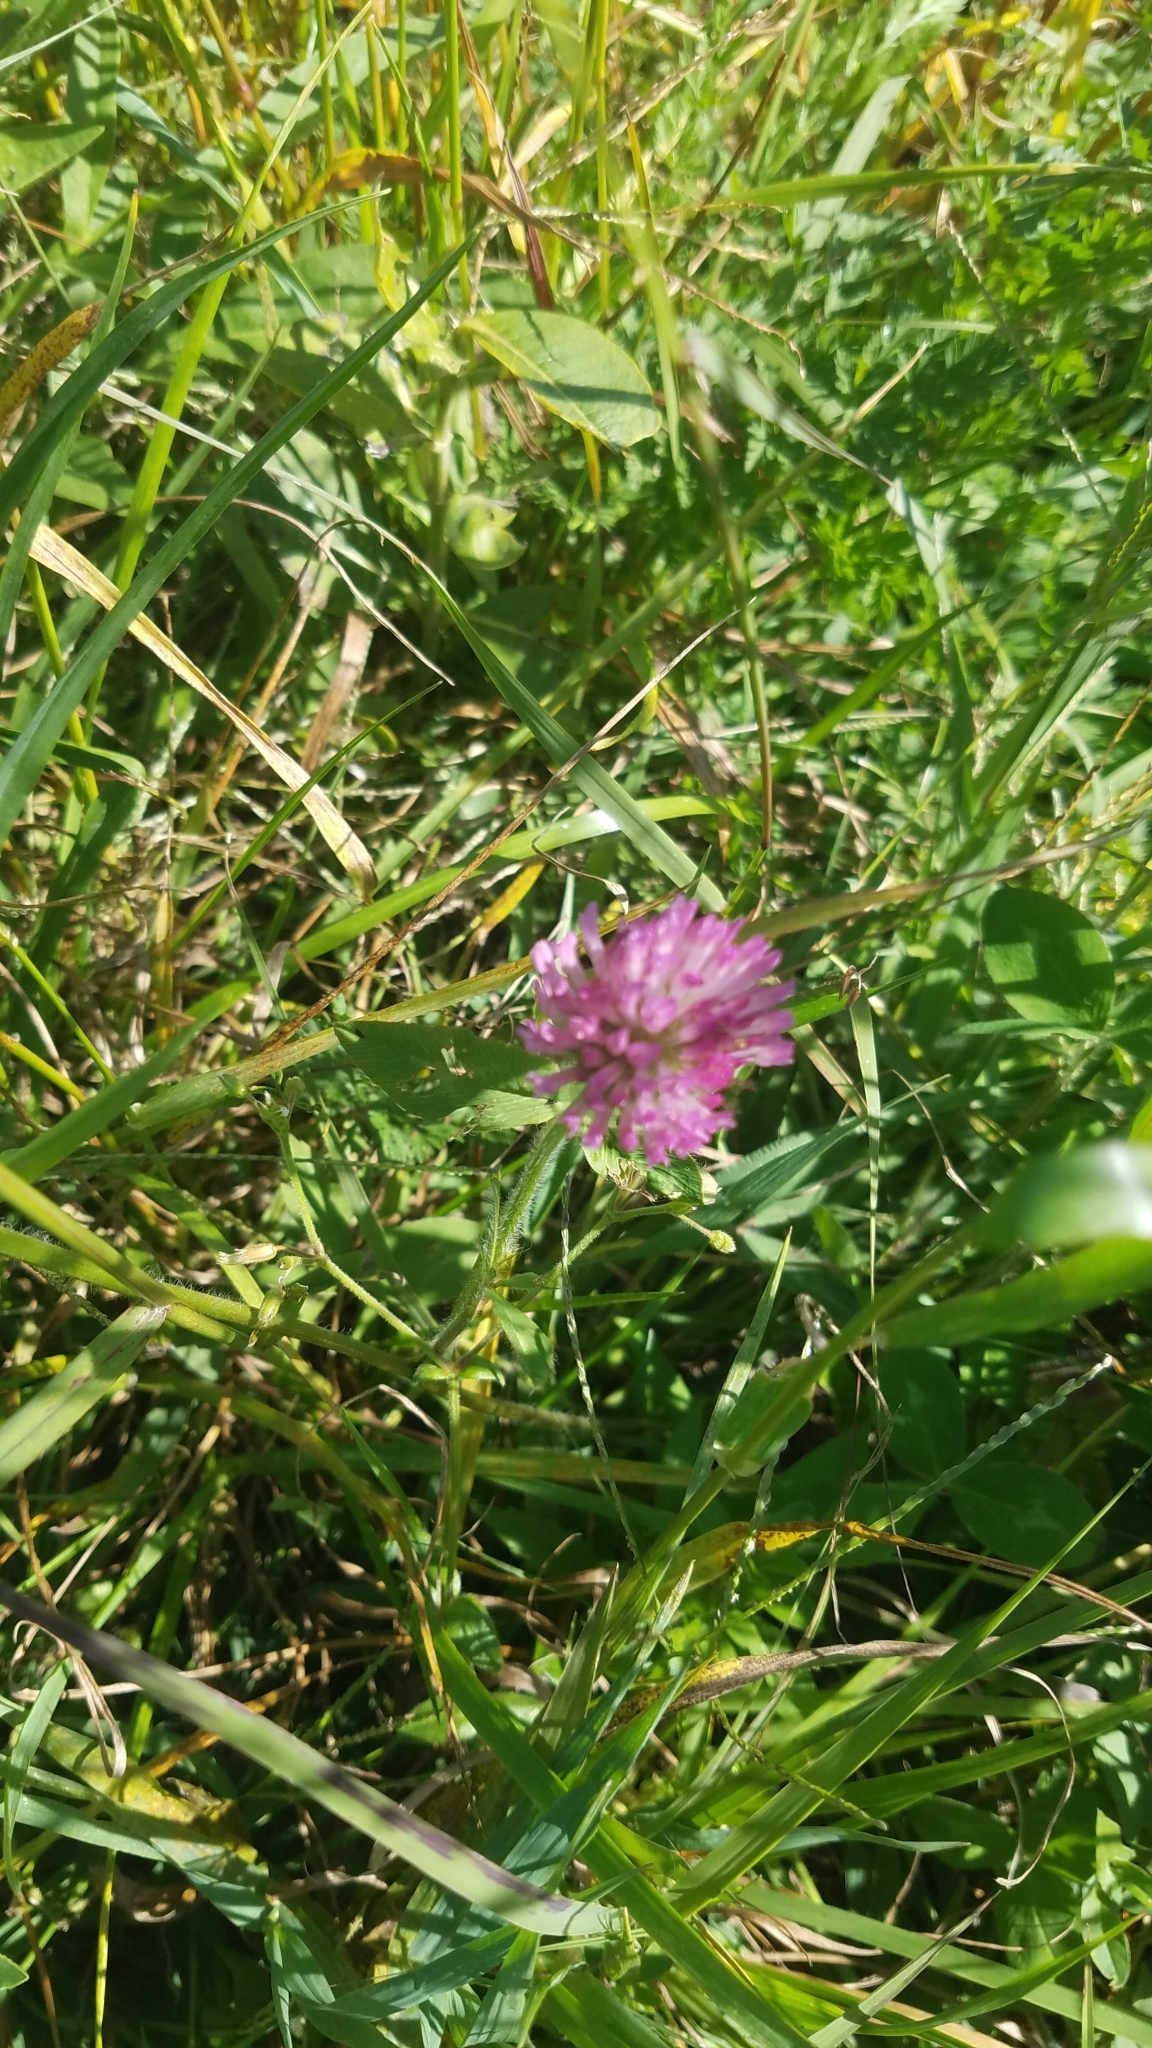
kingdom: Plantae
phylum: Tracheophyta
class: Magnoliopsida
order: Fabales
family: Fabaceae
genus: Trifolium
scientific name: Trifolium pratense
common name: Red clover
